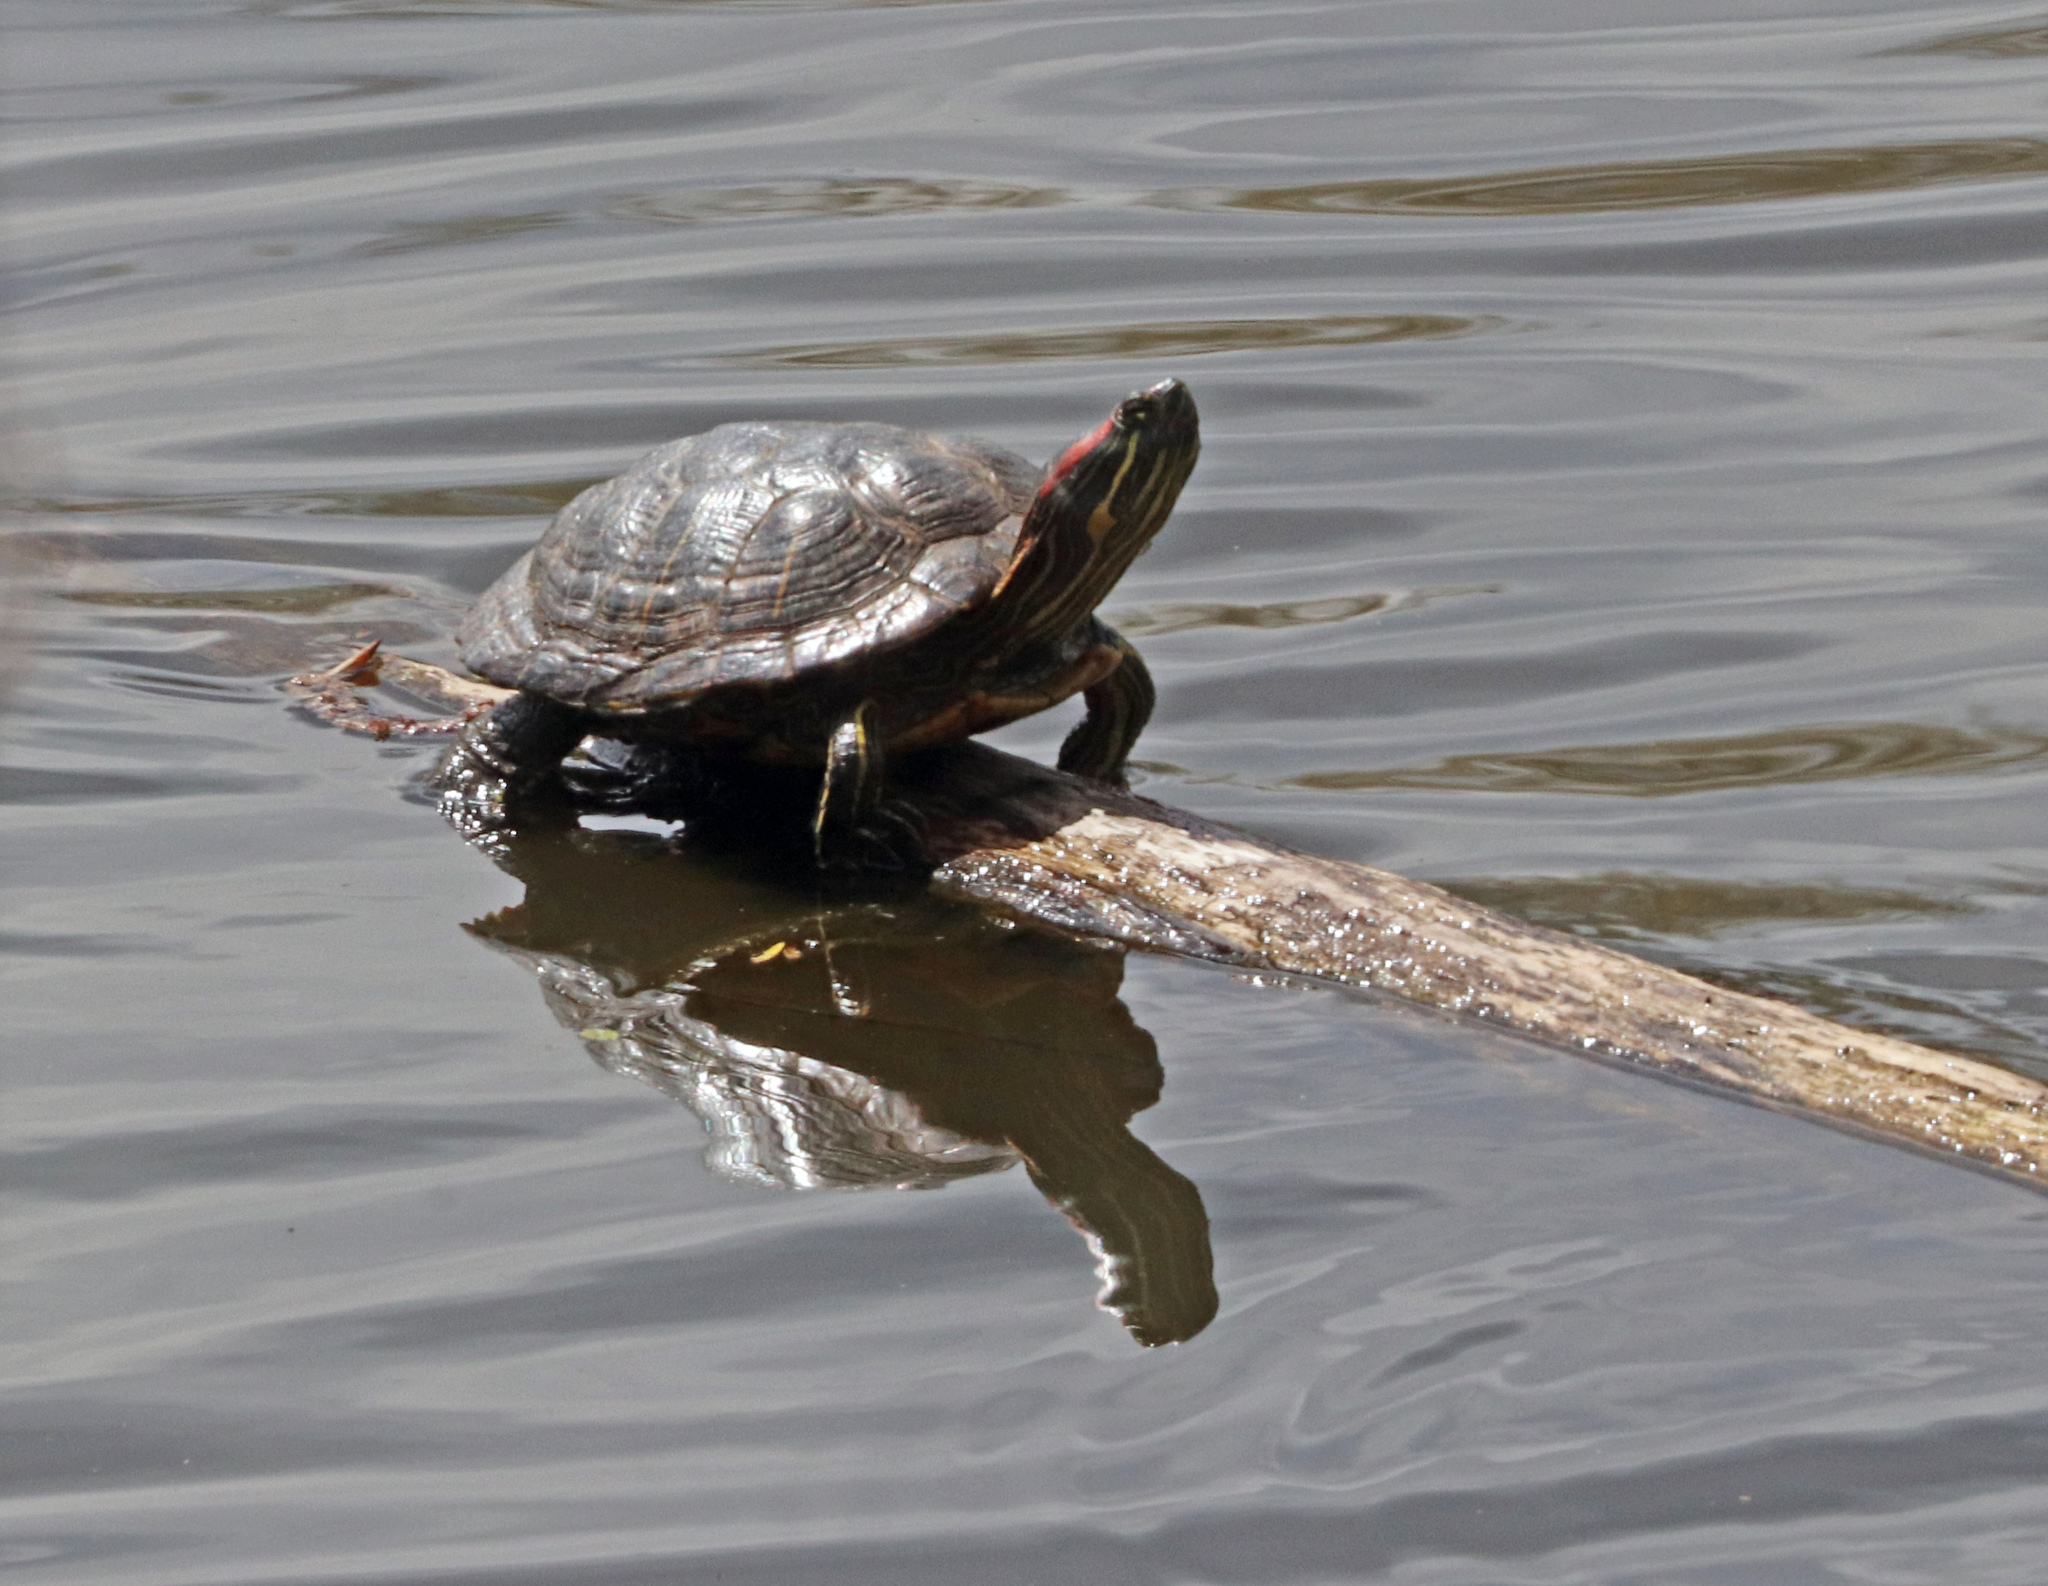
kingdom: Animalia
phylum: Chordata
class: Testudines
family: Emydidae
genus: Trachemys
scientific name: Trachemys scripta
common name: Slider
